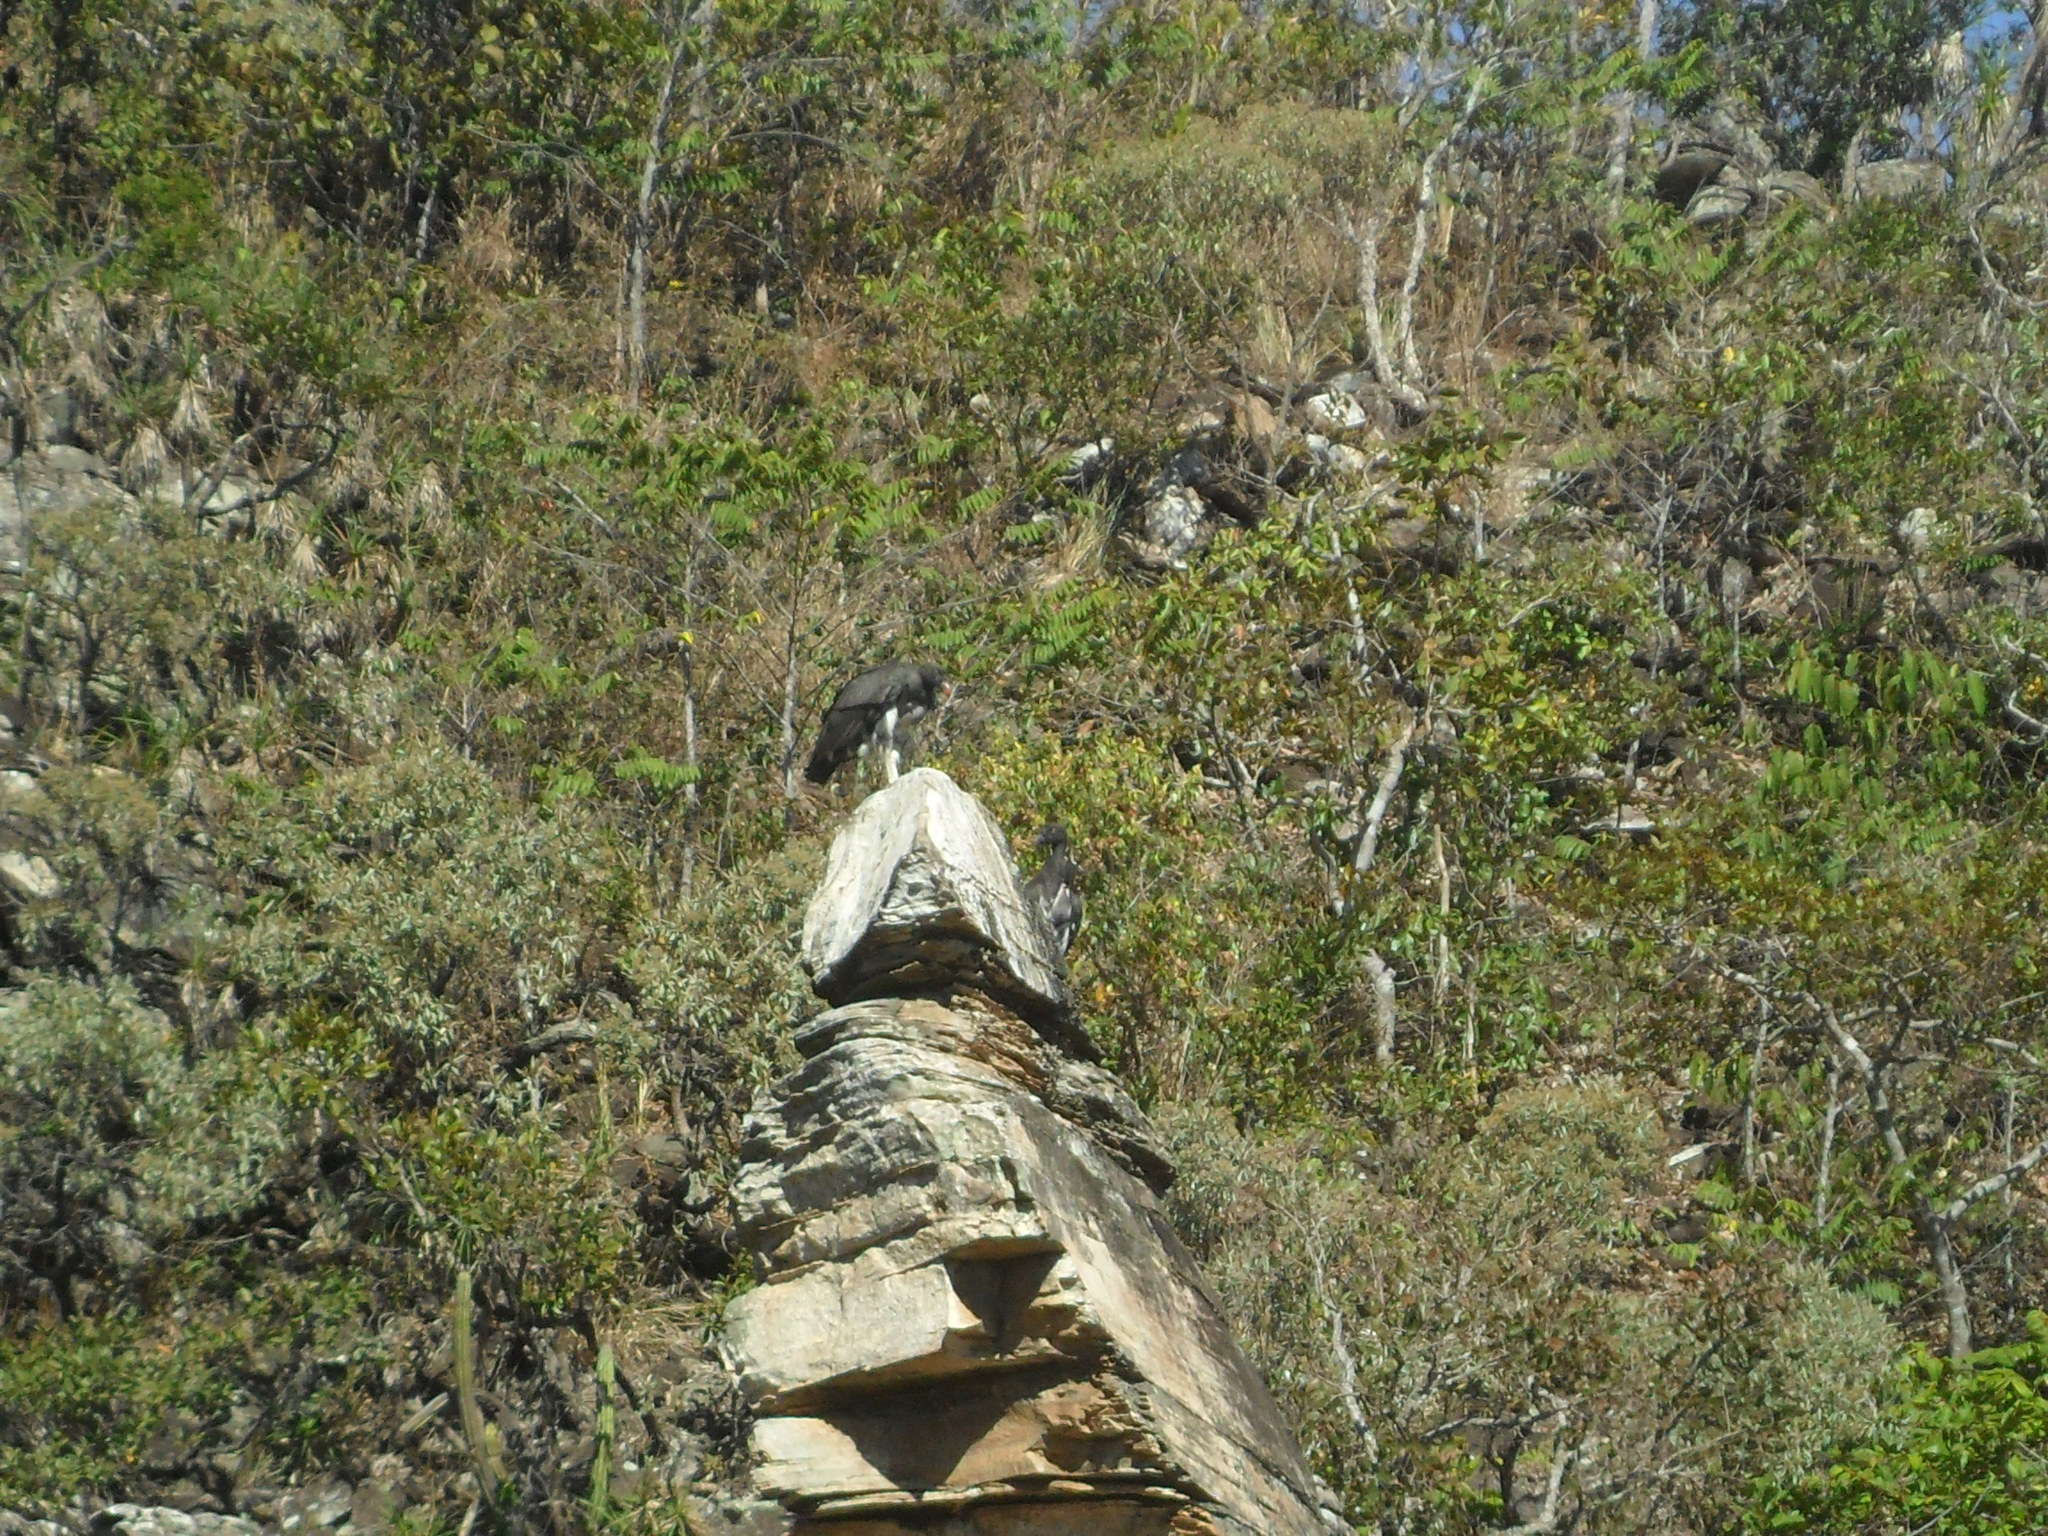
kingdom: Animalia
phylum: Chordata
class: Aves
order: Accipitriformes
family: Cathartidae
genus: Sarcoramphus
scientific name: Sarcoramphus papa
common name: King vulture
